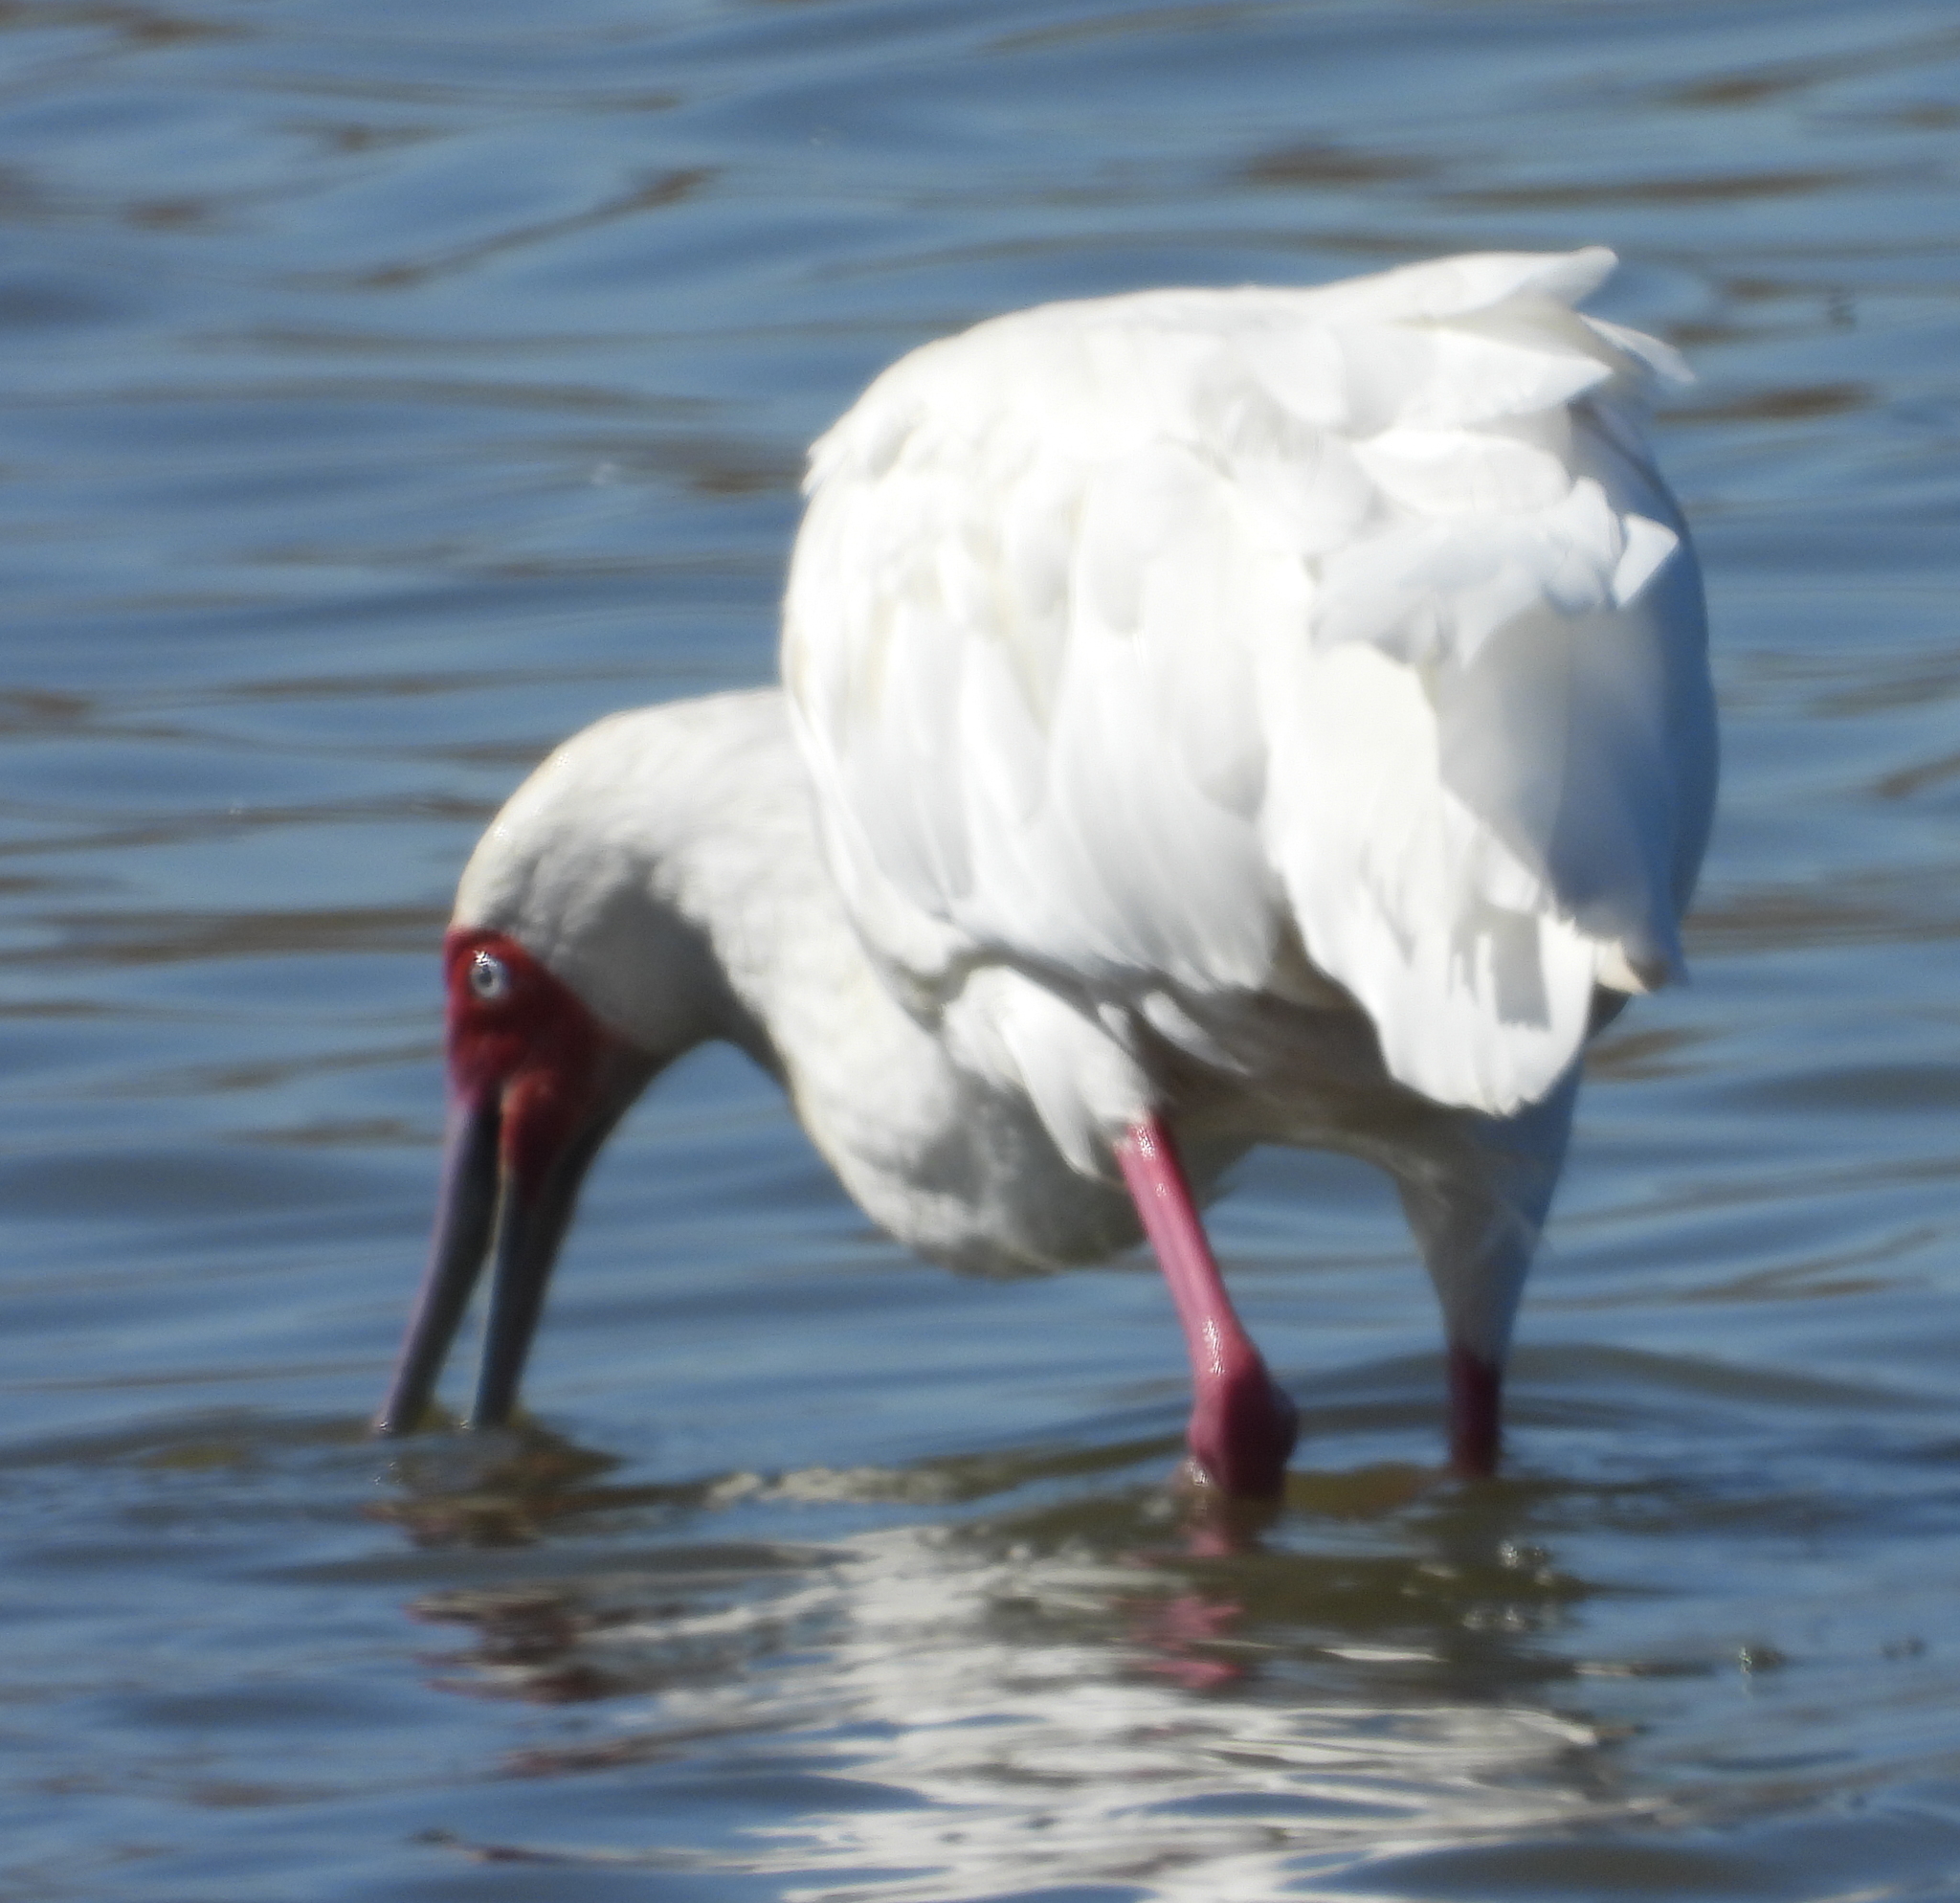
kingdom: Animalia
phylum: Chordata
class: Aves
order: Pelecaniformes
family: Threskiornithidae
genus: Platalea
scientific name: Platalea alba
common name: African spoonbill
